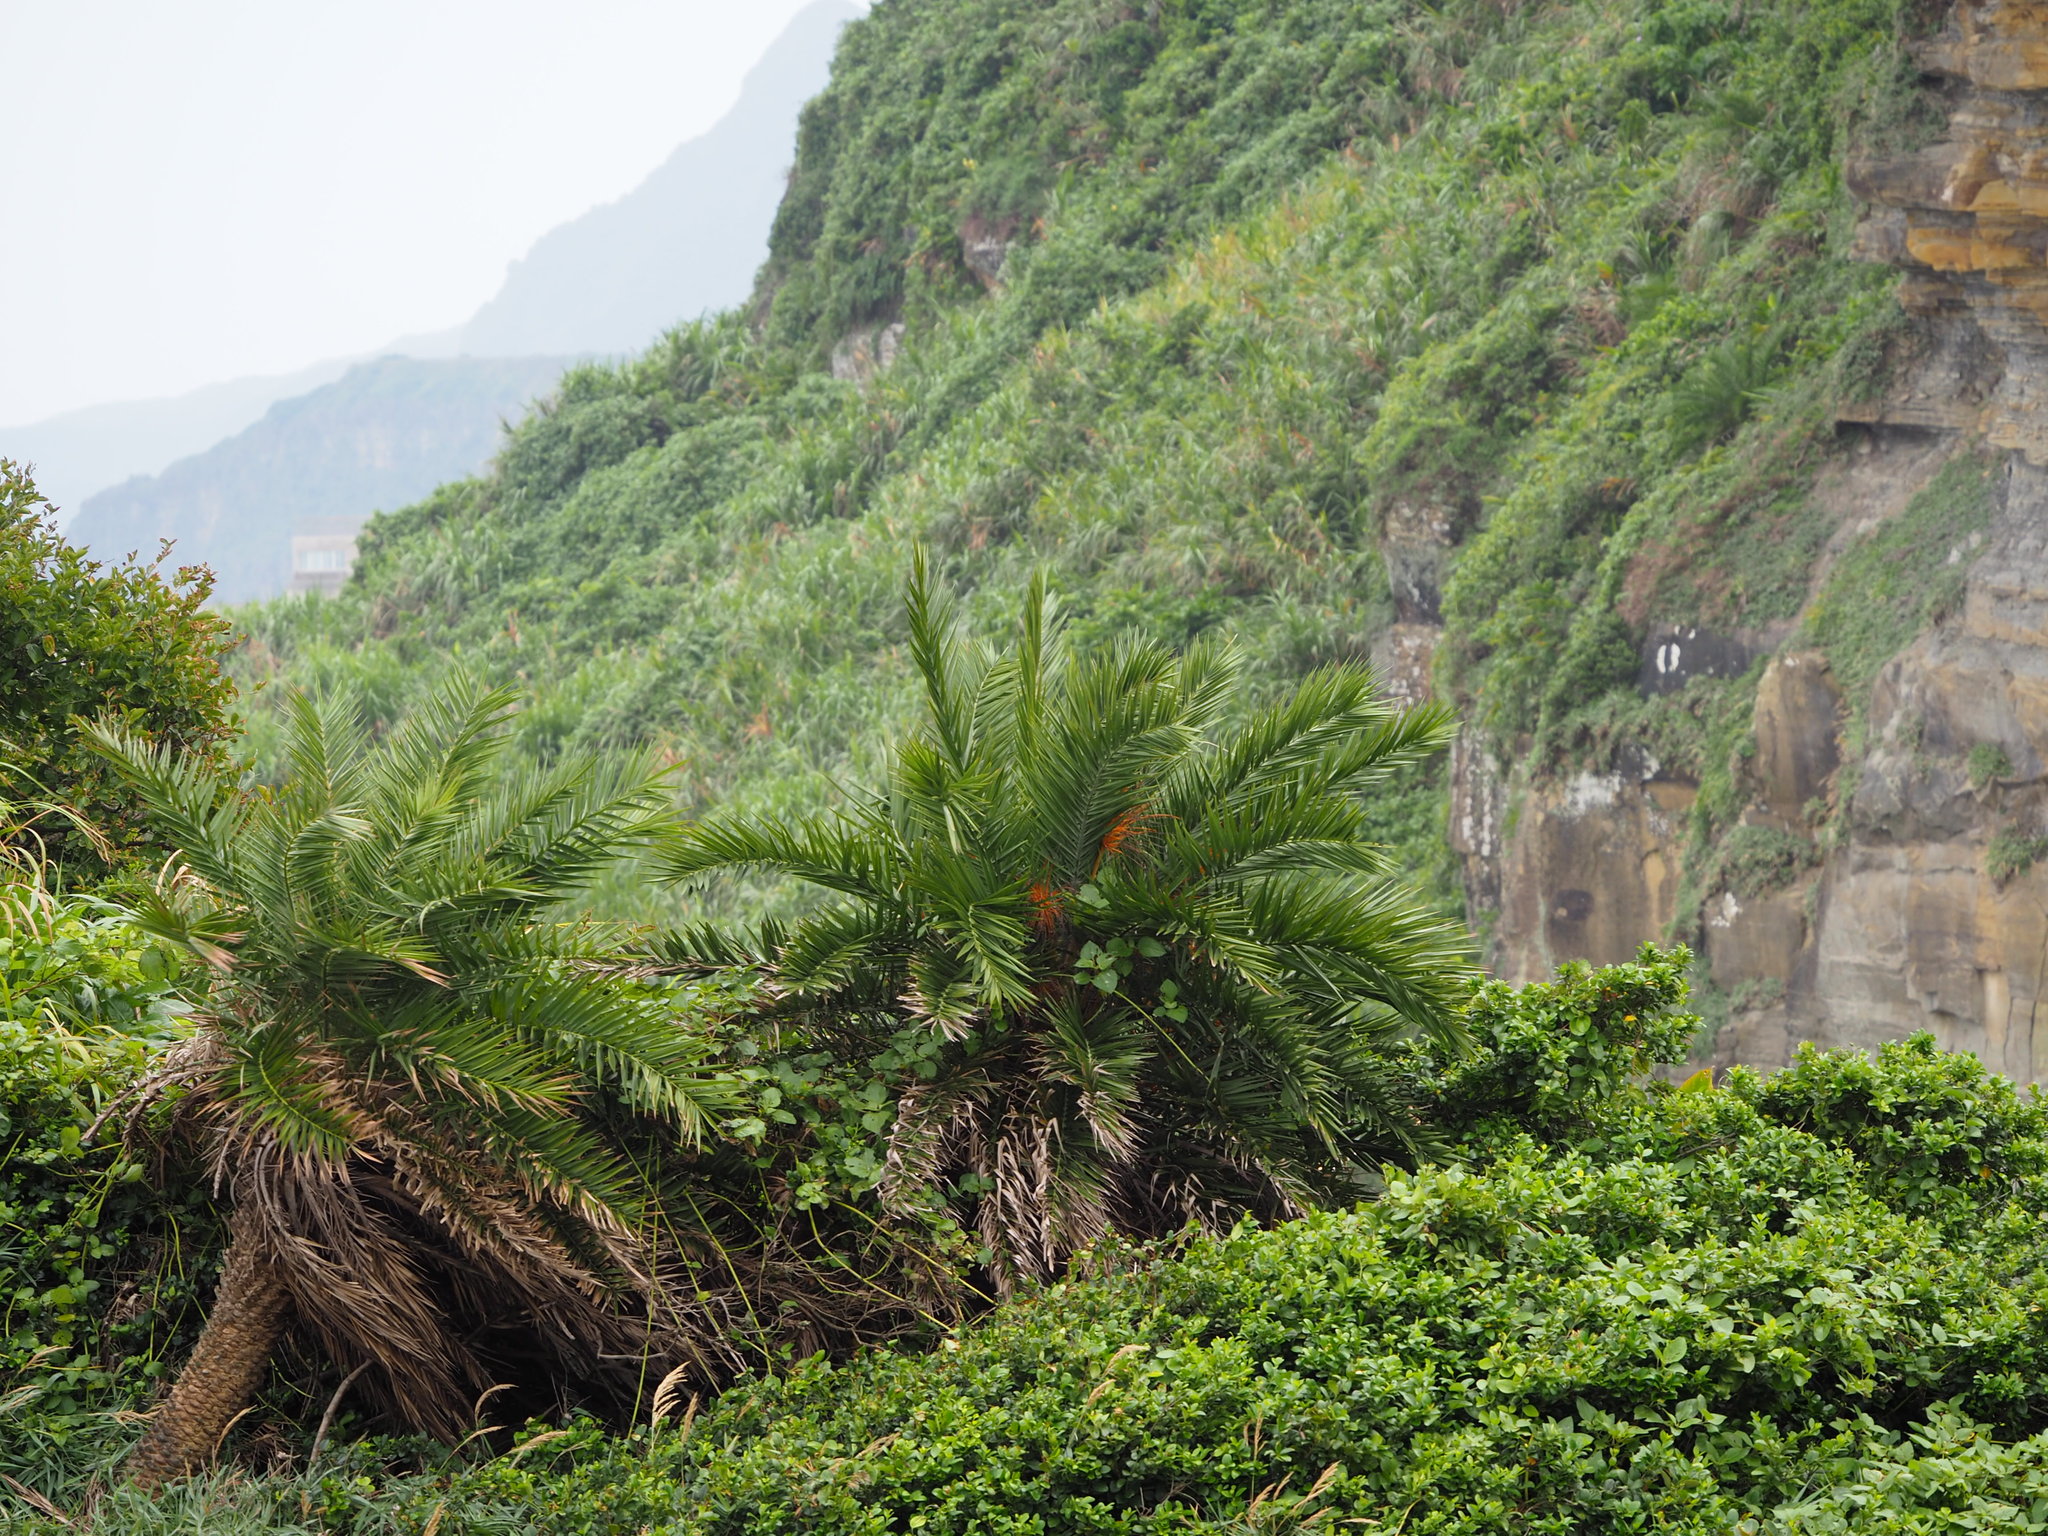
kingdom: Plantae
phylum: Tracheophyta
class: Liliopsida
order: Arecales
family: Arecaceae
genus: Phoenix
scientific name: Phoenix loureiroi
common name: Loureiro's palm
